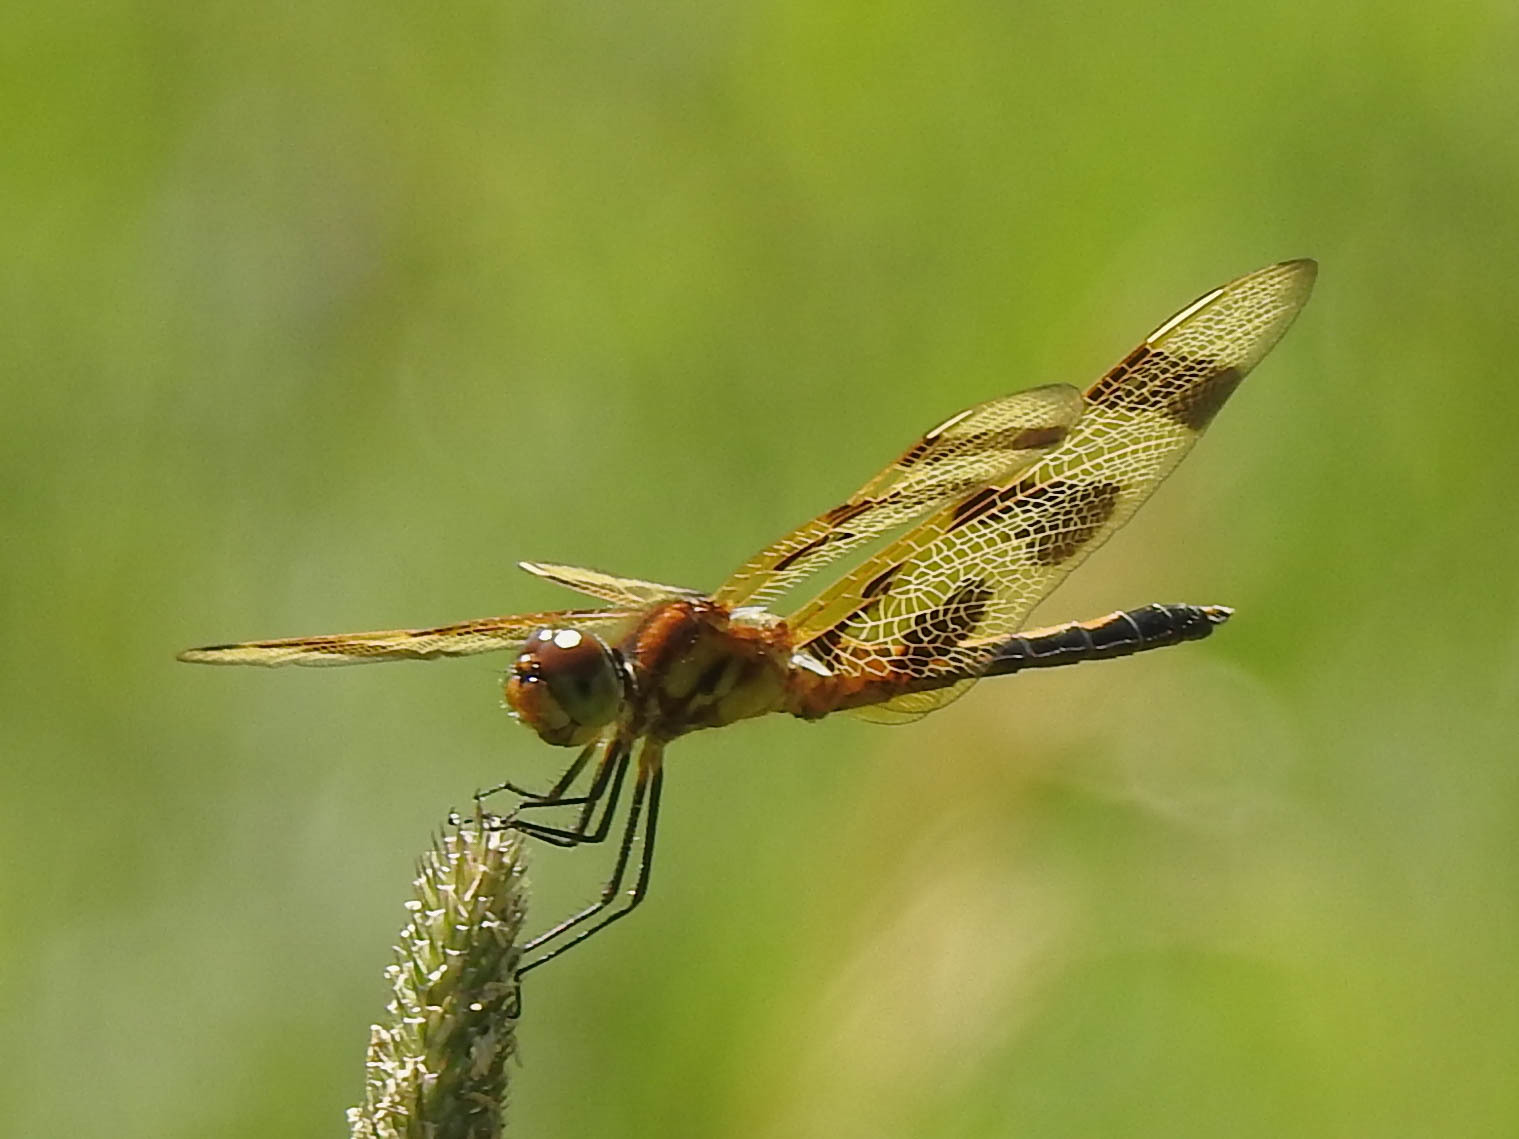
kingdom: Animalia
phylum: Arthropoda
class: Insecta
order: Odonata
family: Libellulidae
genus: Celithemis
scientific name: Celithemis eponina
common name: Halloween pennant
